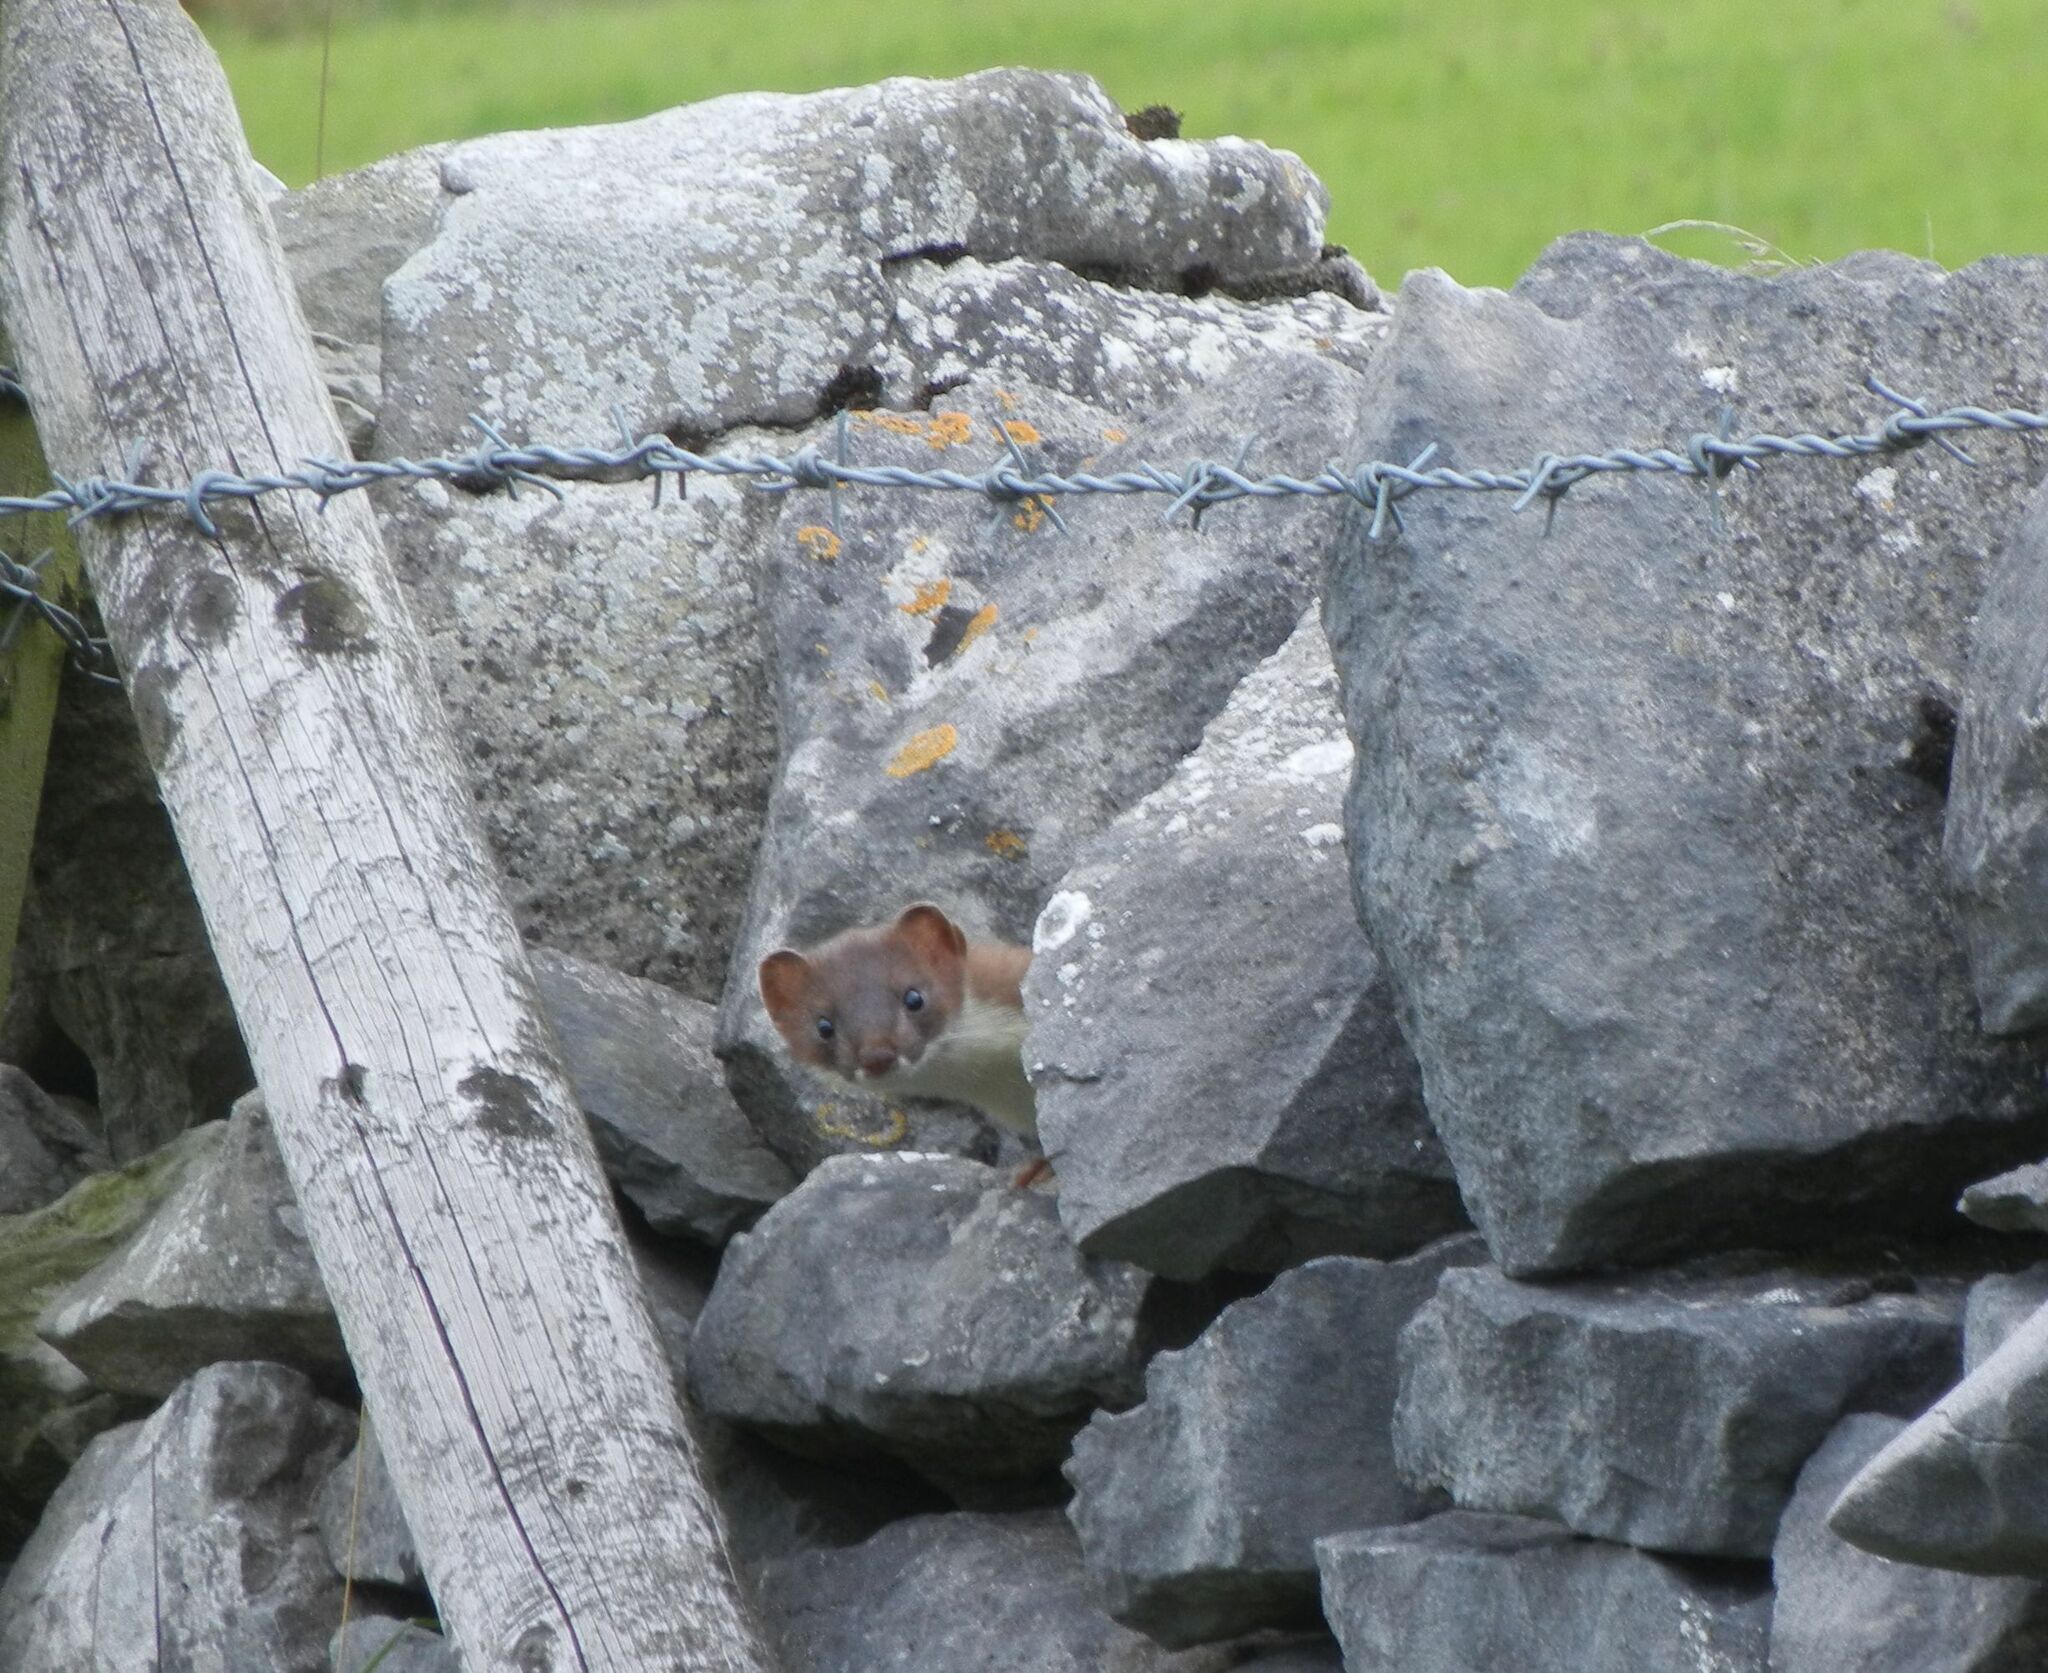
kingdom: Animalia
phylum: Chordata
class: Mammalia
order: Carnivora
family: Mustelidae
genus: Mustela
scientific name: Mustela erminea
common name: Stoat
